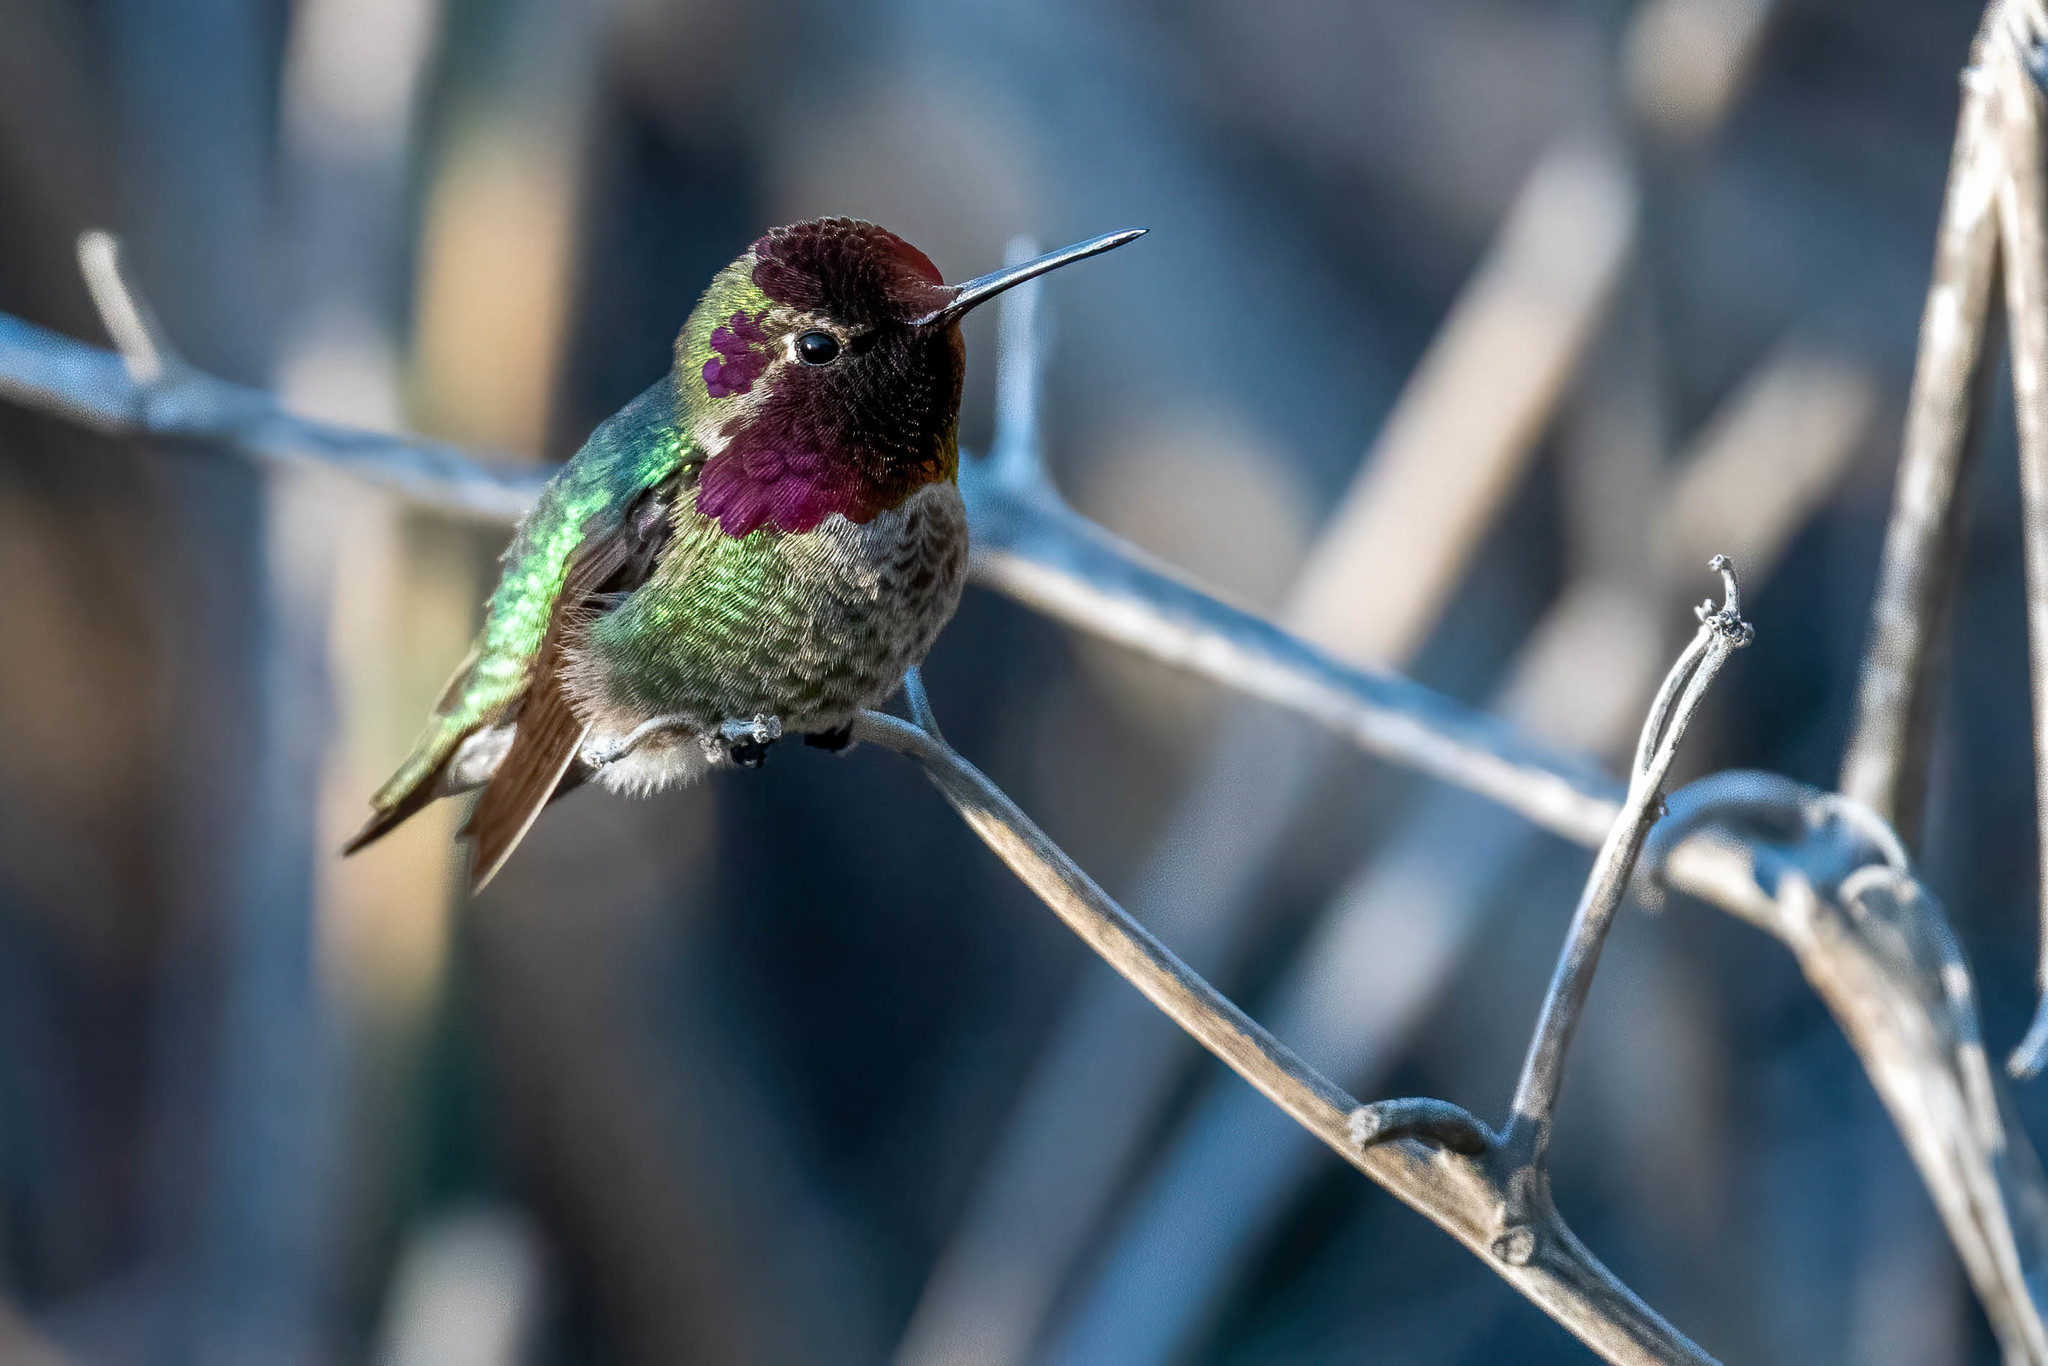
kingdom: Animalia
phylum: Chordata
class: Aves
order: Apodiformes
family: Trochilidae
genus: Calypte
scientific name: Calypte anna
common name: Anna's hummingbird
